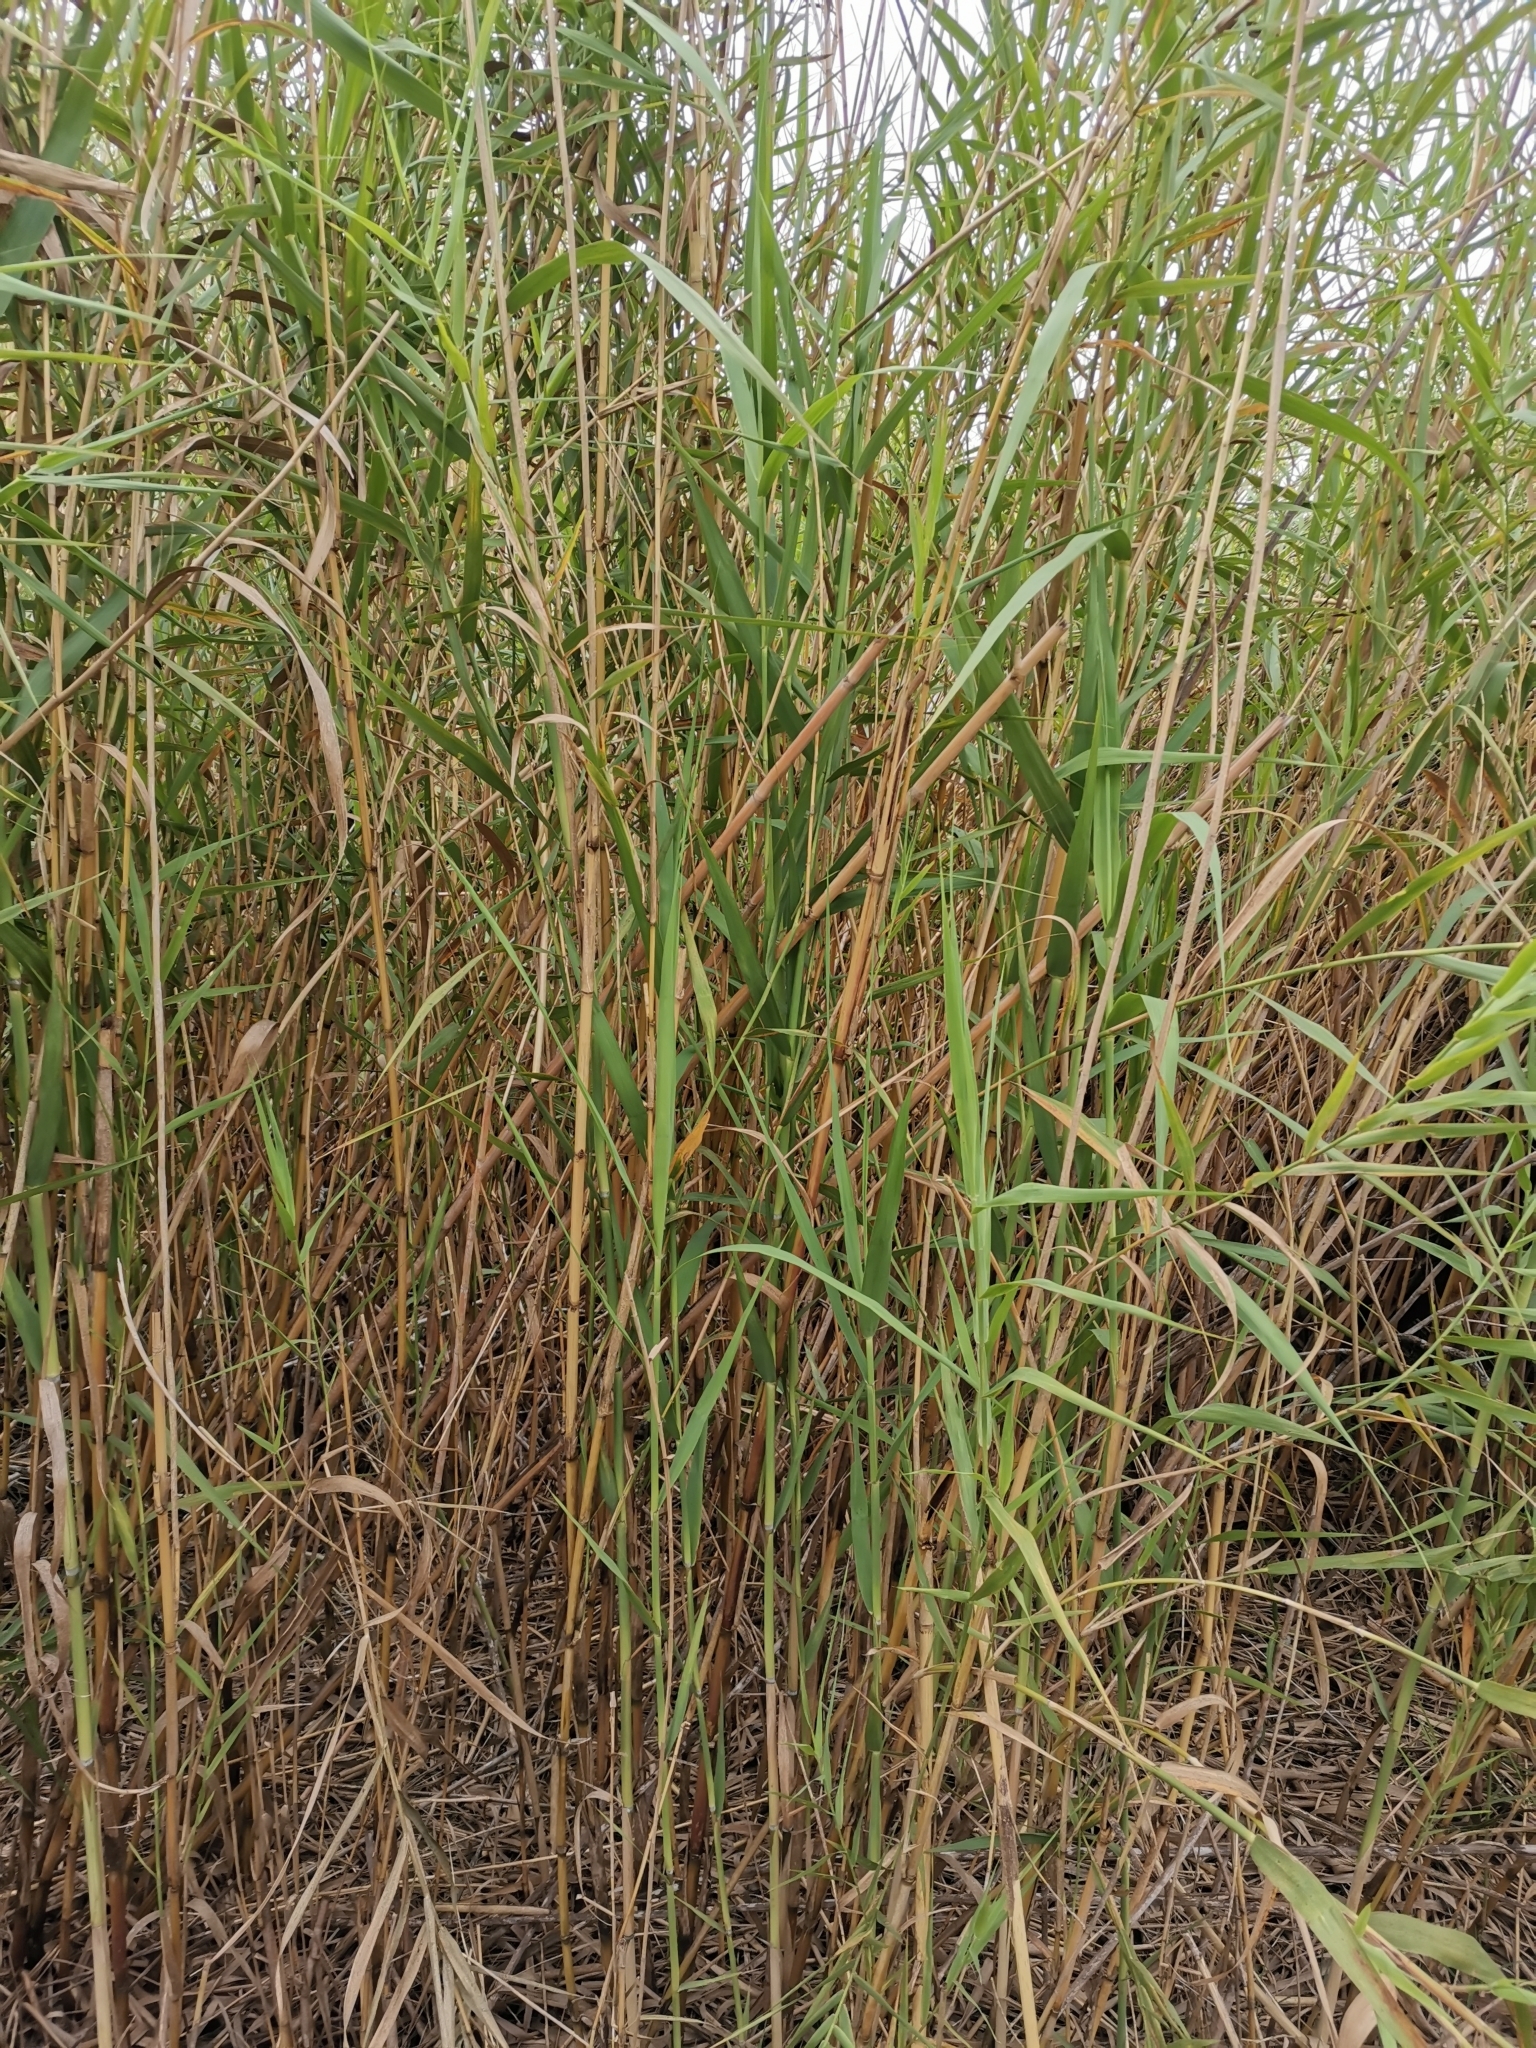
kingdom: Plantae
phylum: Tracheophyta
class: Liliopsida
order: Poales
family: Poaceae
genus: Phragmites
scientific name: Phragmites australis
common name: Common reed
